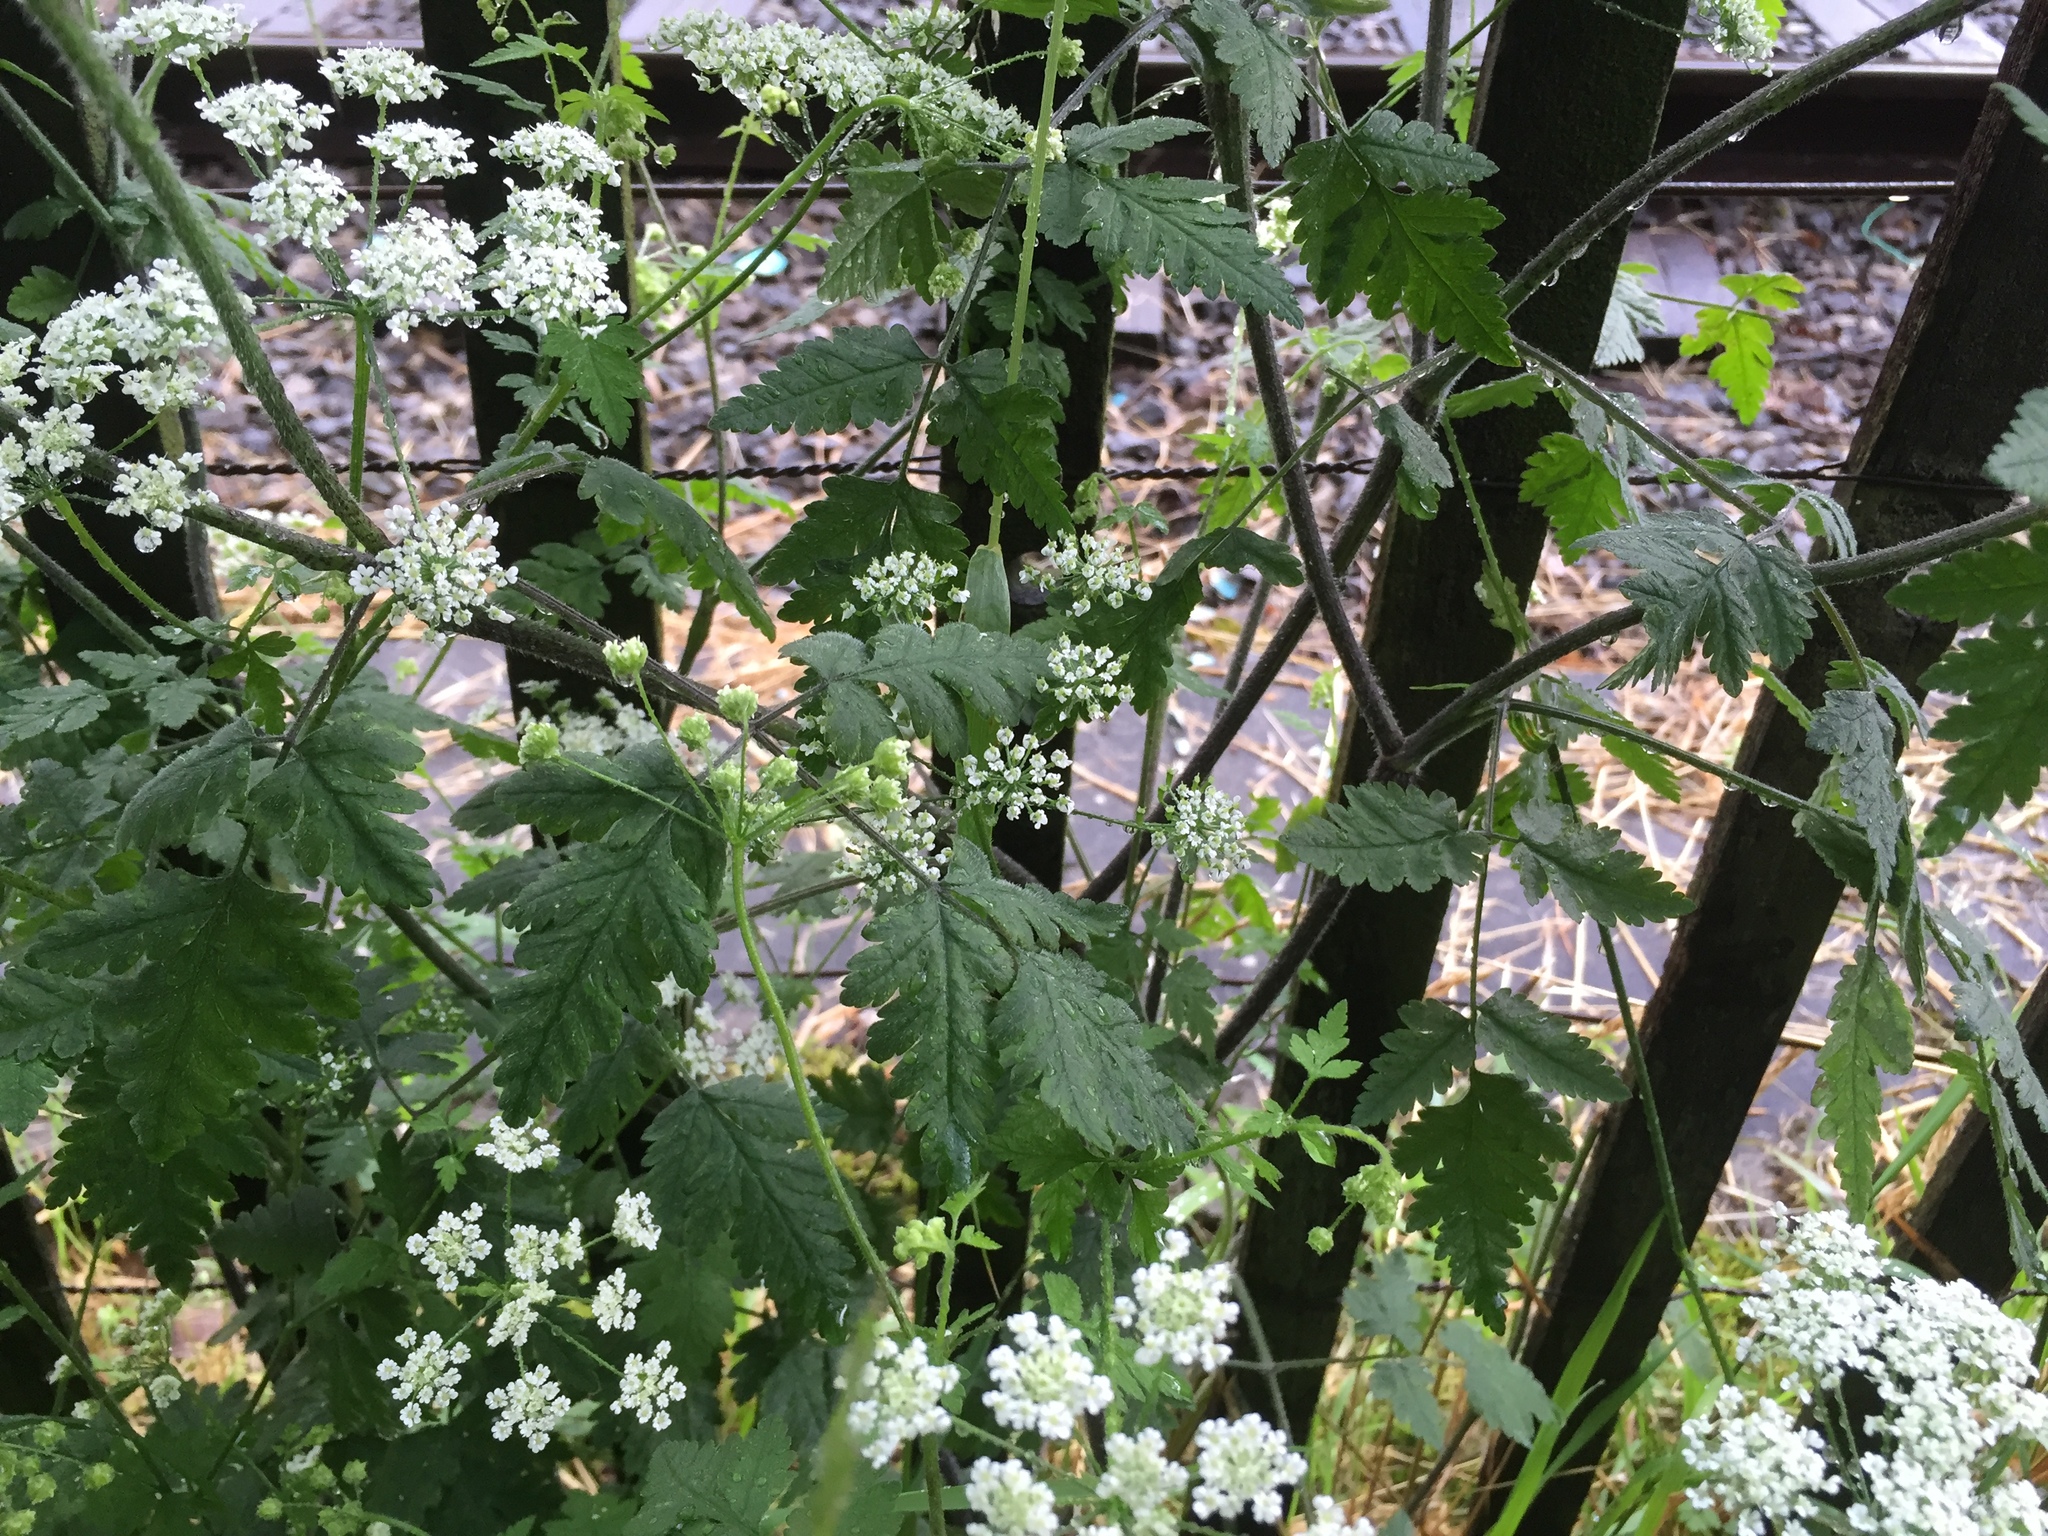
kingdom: Plantae
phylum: Tracheophyta
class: Magnoliopsida
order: Apiales
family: Apiaceae
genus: Chaerophyllum
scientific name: Chaerophyllum temulum
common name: Rough chervil
